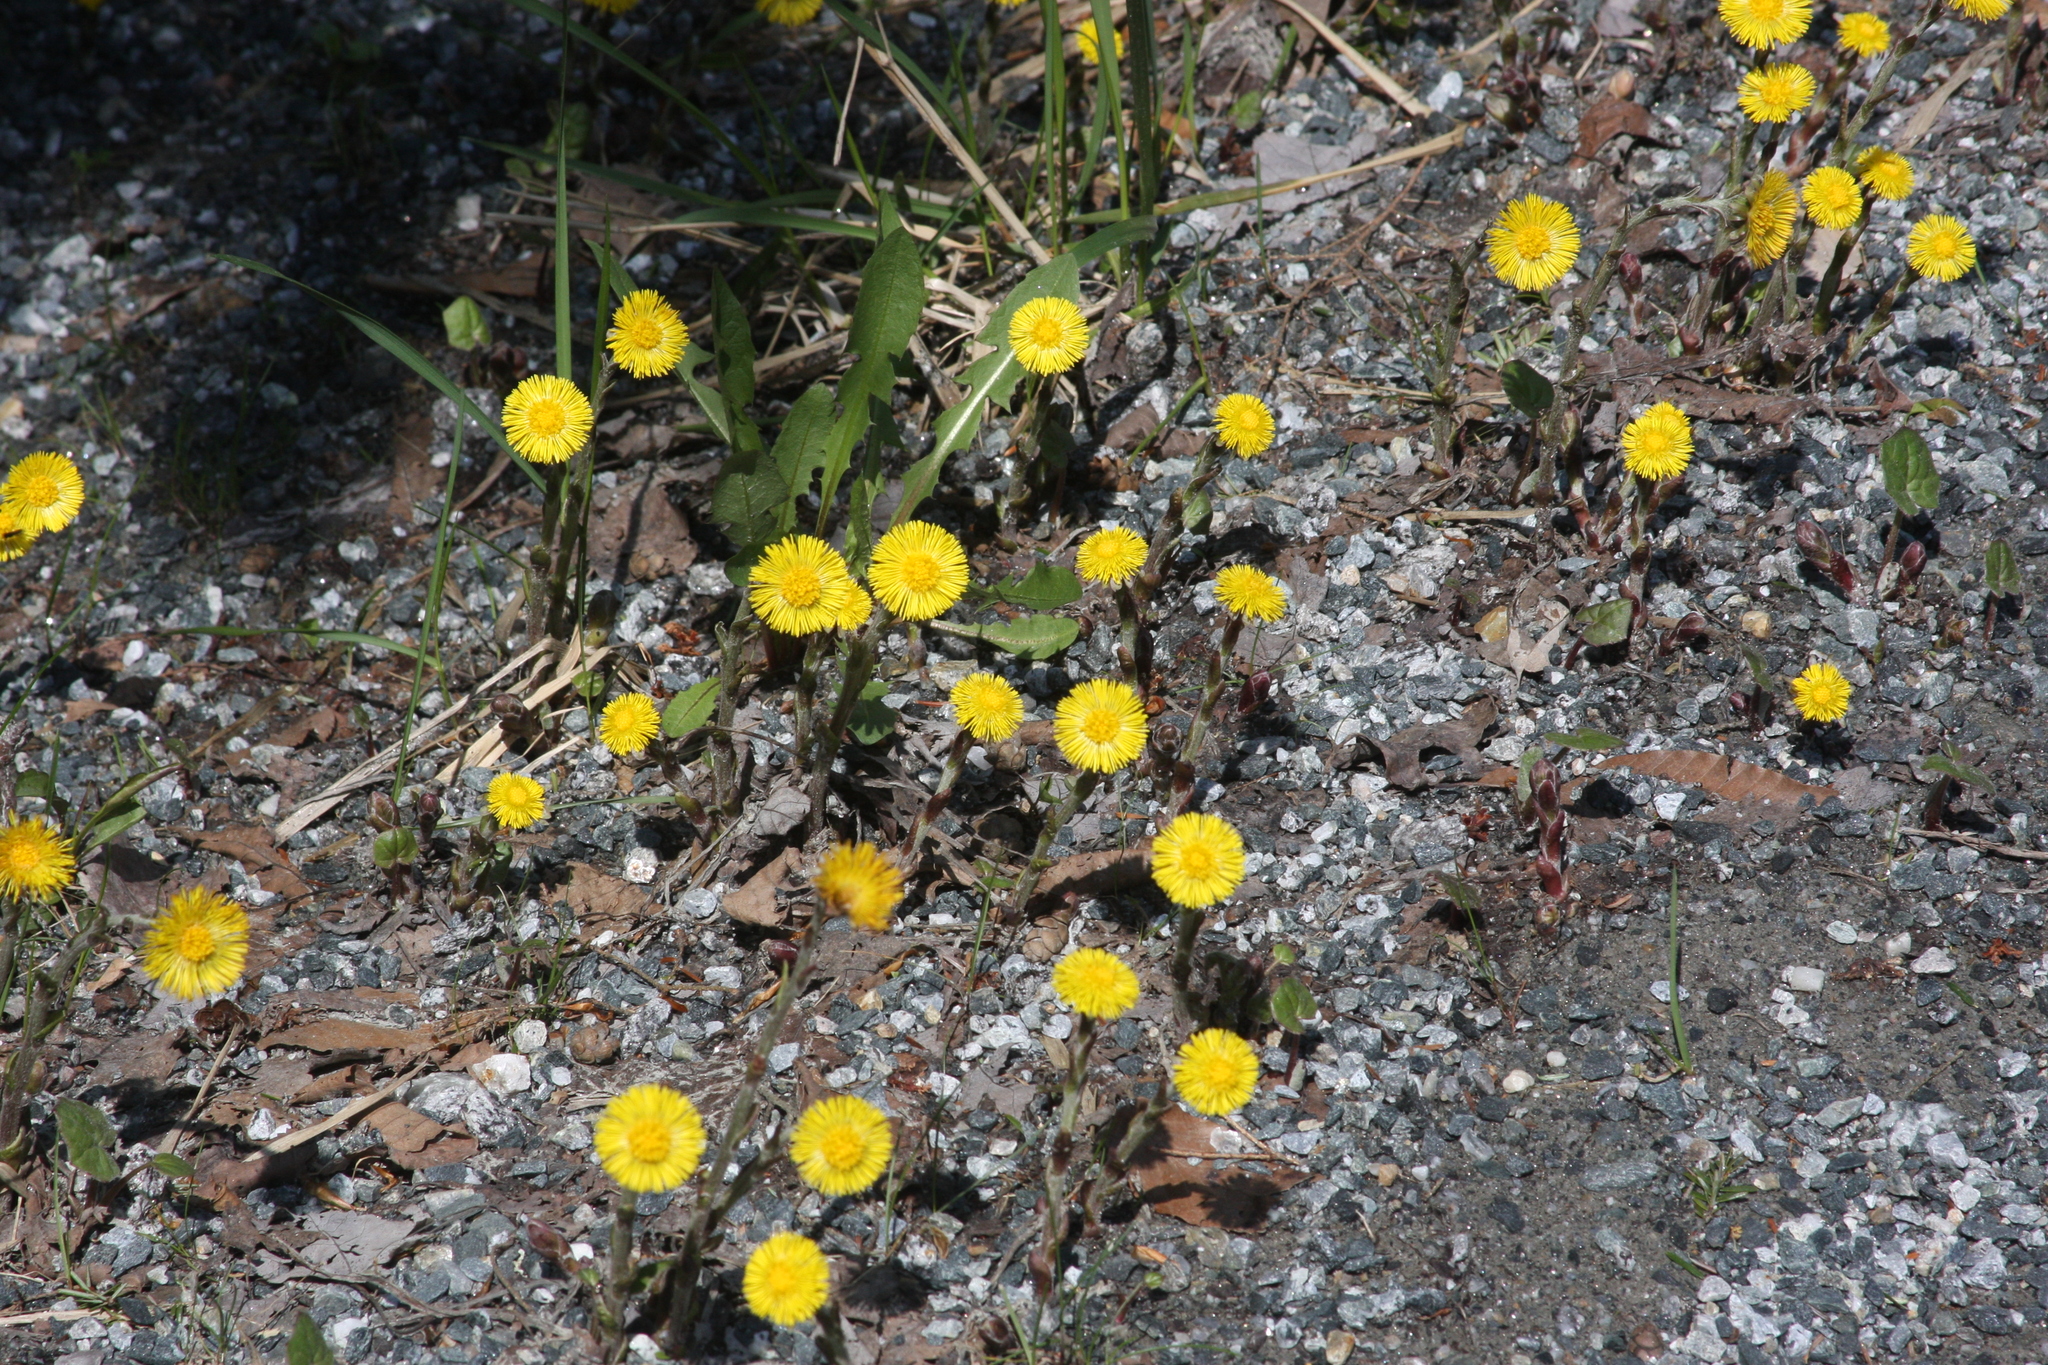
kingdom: Plantae
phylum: Tracheophyta
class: Magnoliopsida
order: Asterales
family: Asteraceae
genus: Tussilago
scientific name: Tussilago farfara
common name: Coltsfoot
